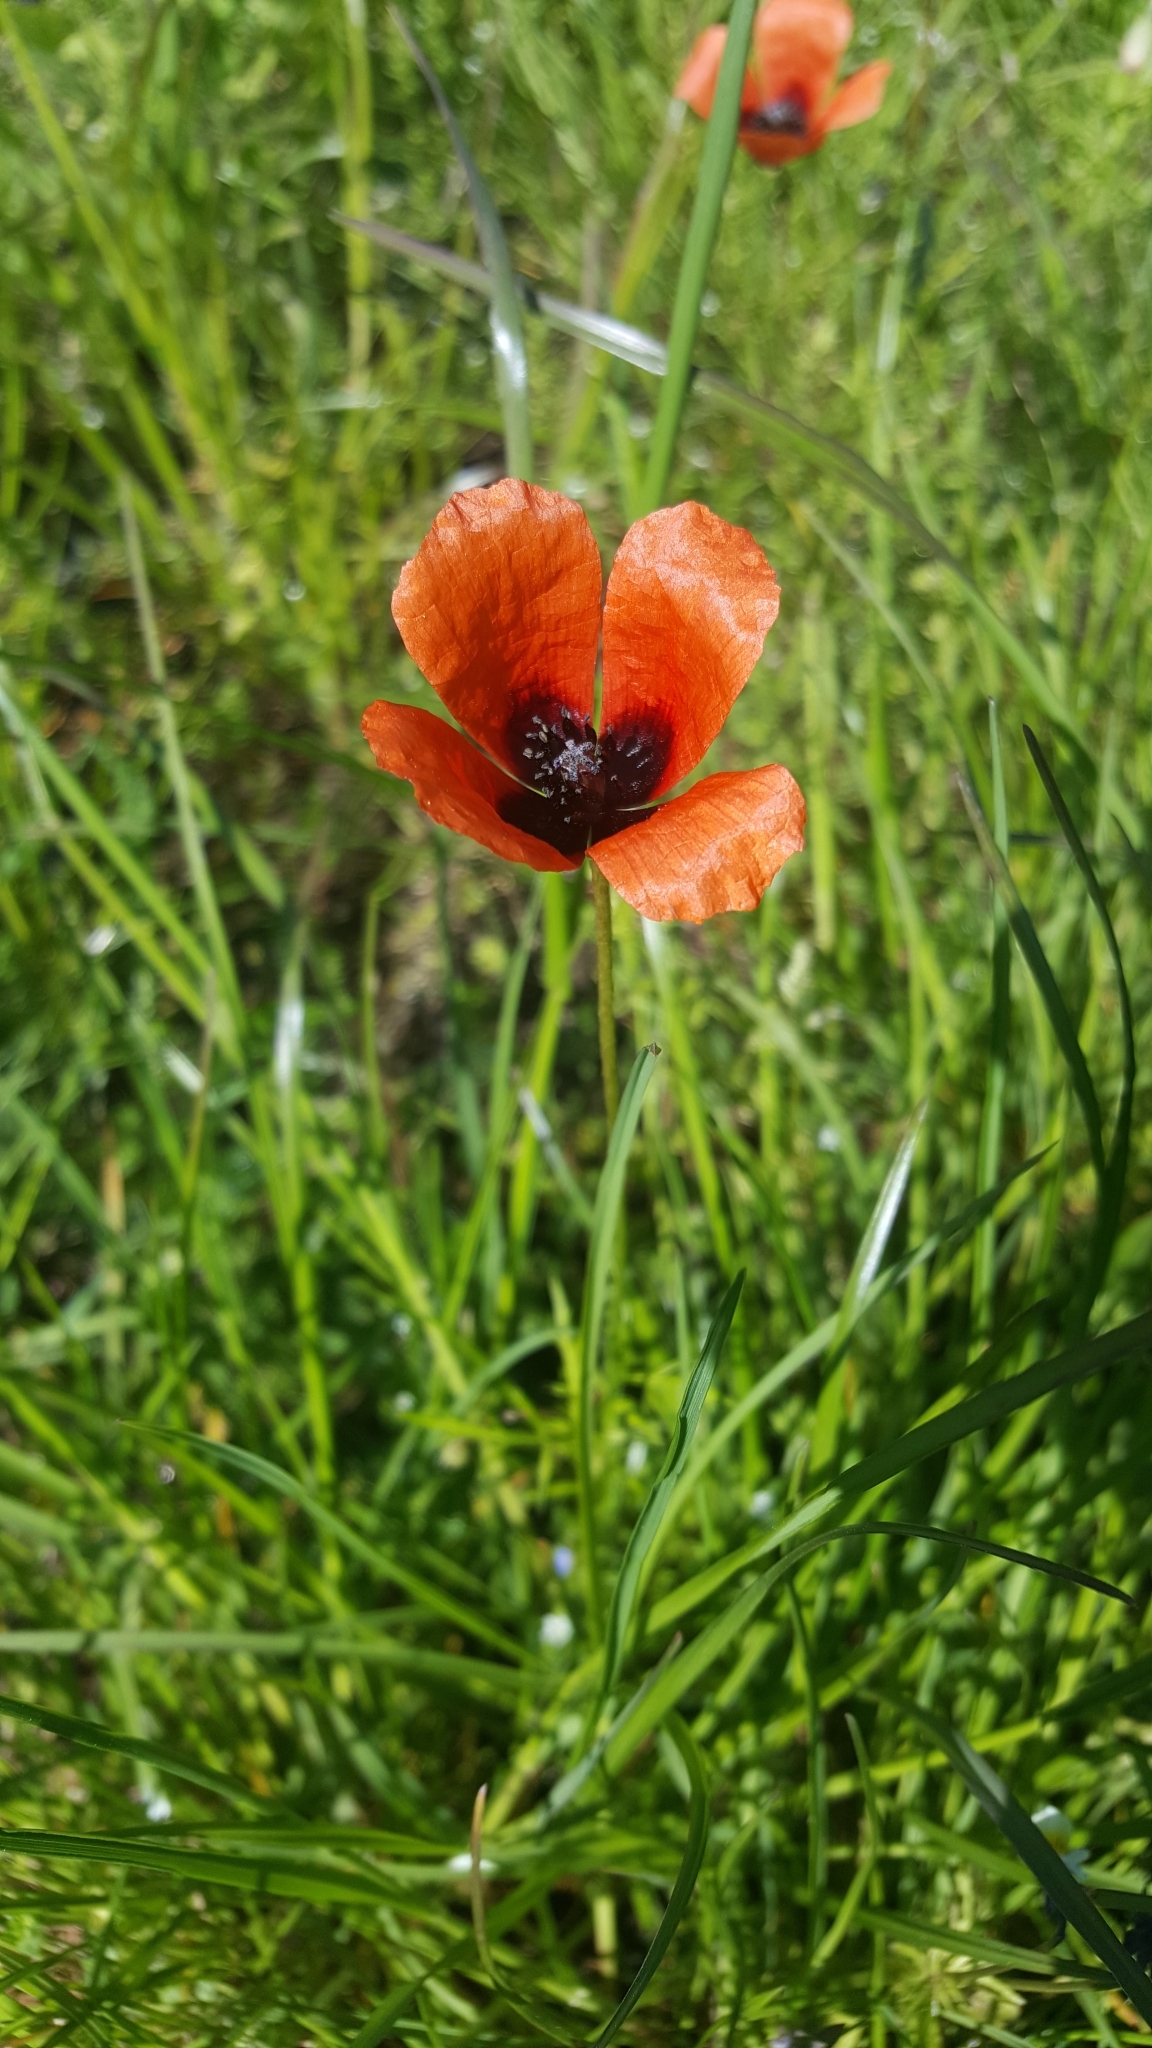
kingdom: Plantae
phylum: Tracheophyta
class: Magnoliopsida
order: Ranunculales
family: Papaveraceae
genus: Roemeria
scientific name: Roemeria argemone
